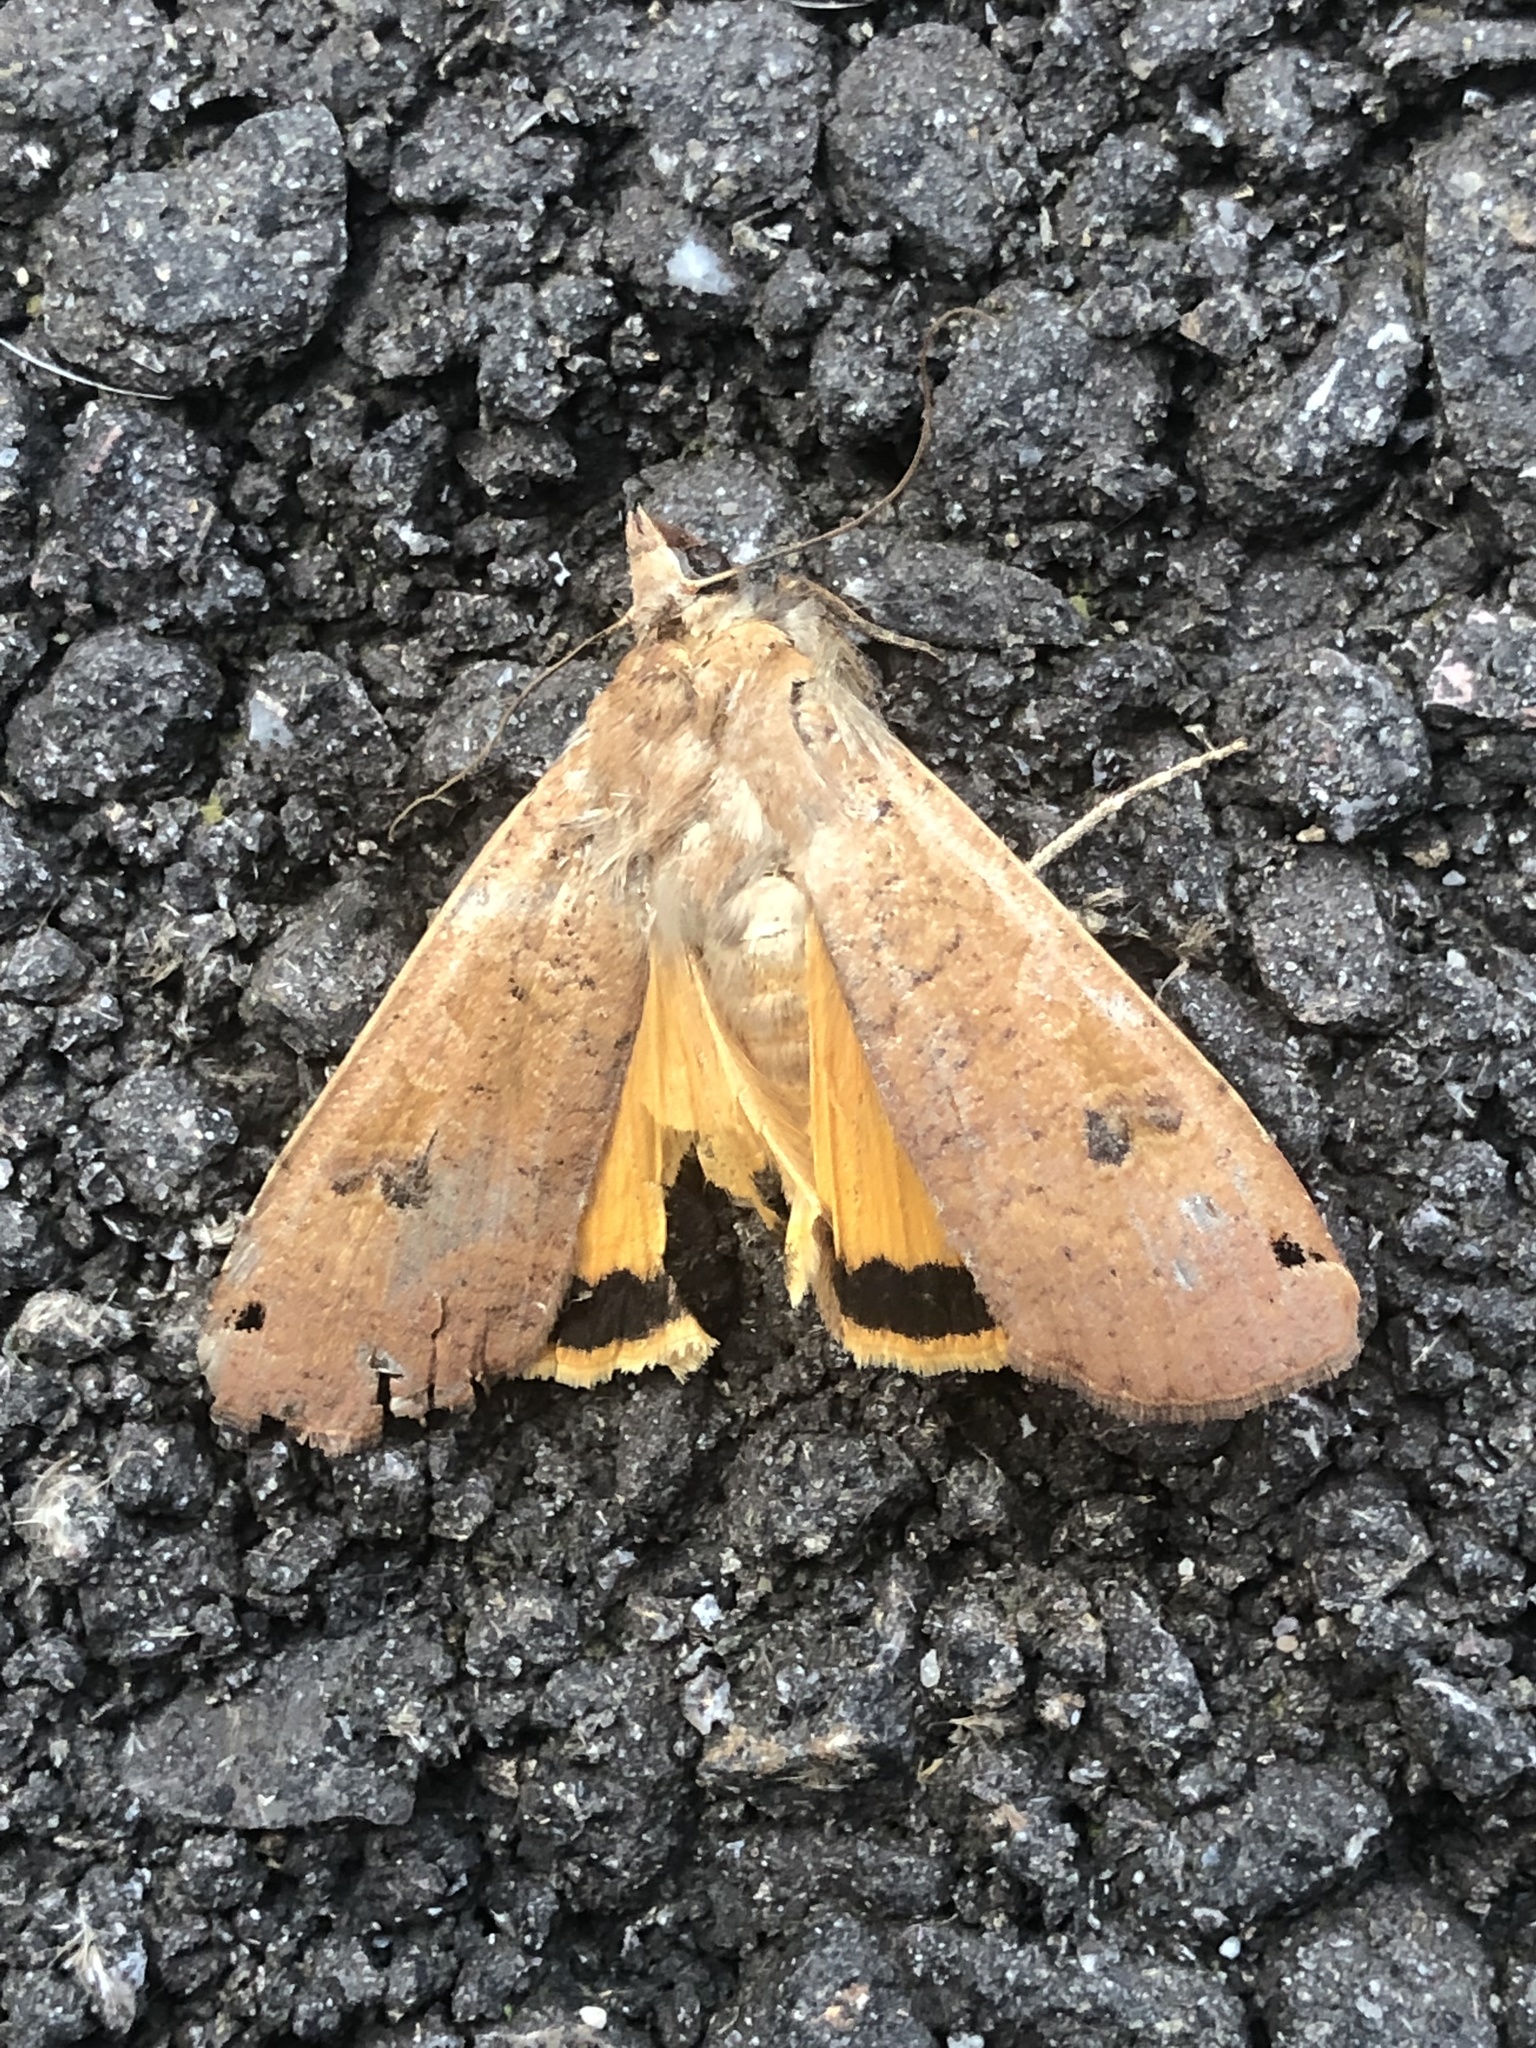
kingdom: Animalia
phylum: Arthropoda
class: Insecta
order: Lepidoptera
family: Noctuidae
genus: Noctua
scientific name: Noctua pronuba
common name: Large yellow underwing
